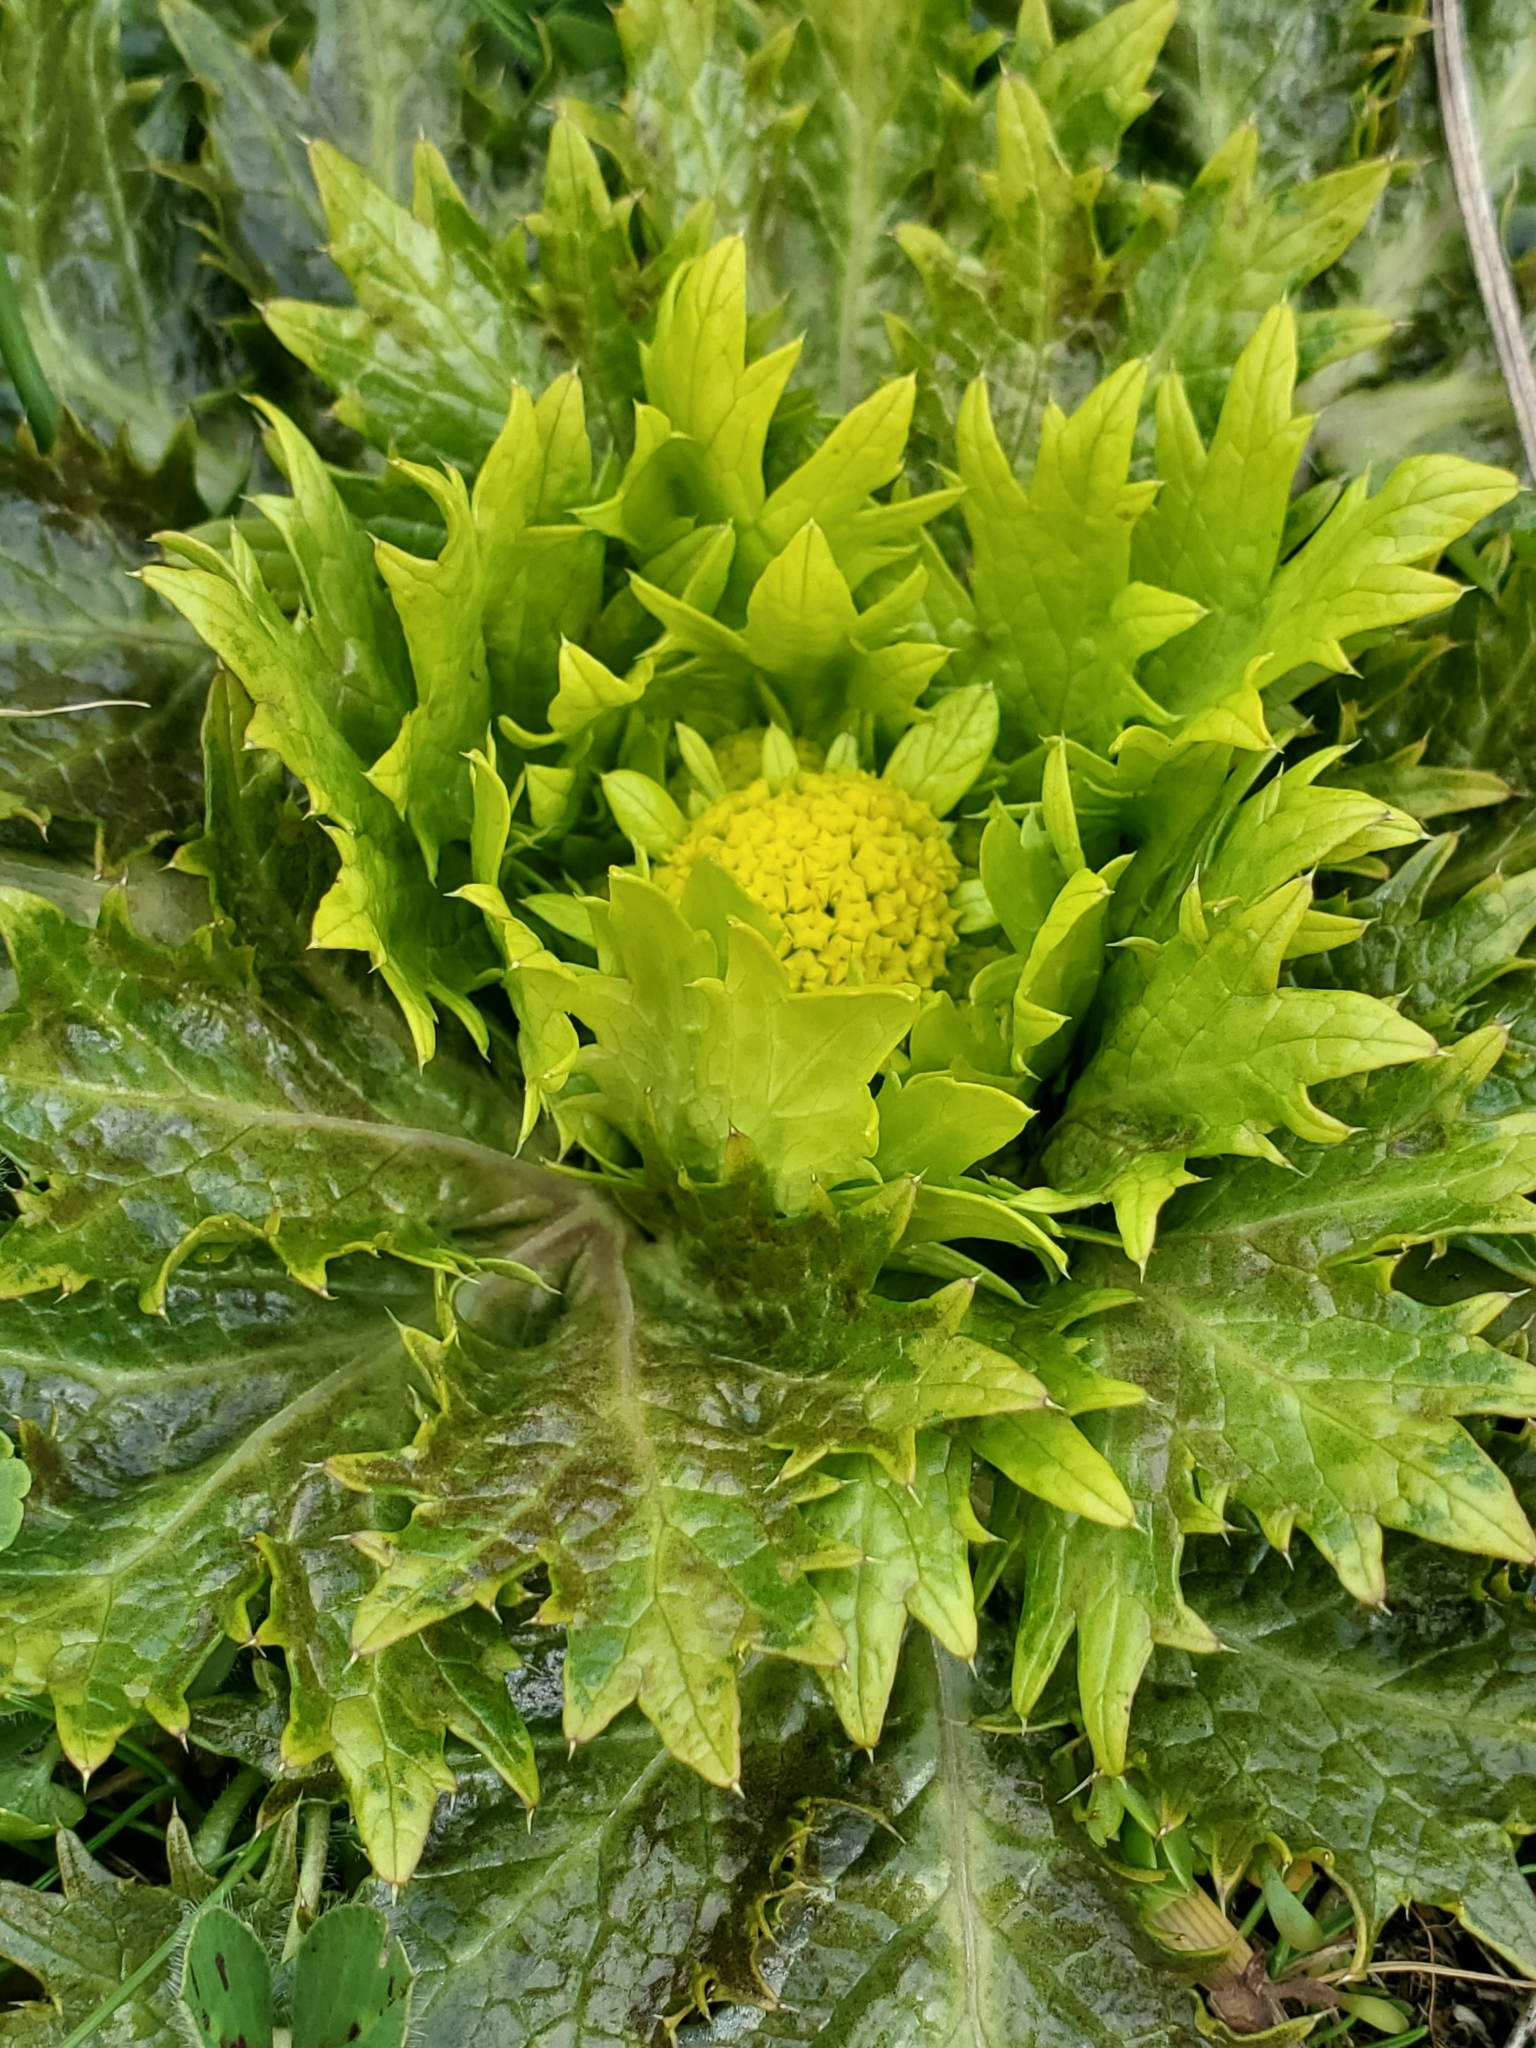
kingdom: Plantae
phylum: Tracheophyta
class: Magnoliopsida
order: Apiales
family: Apiaceae
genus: Sanicula
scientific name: Sanicula arctopoides
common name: Footsteps-of-spring
